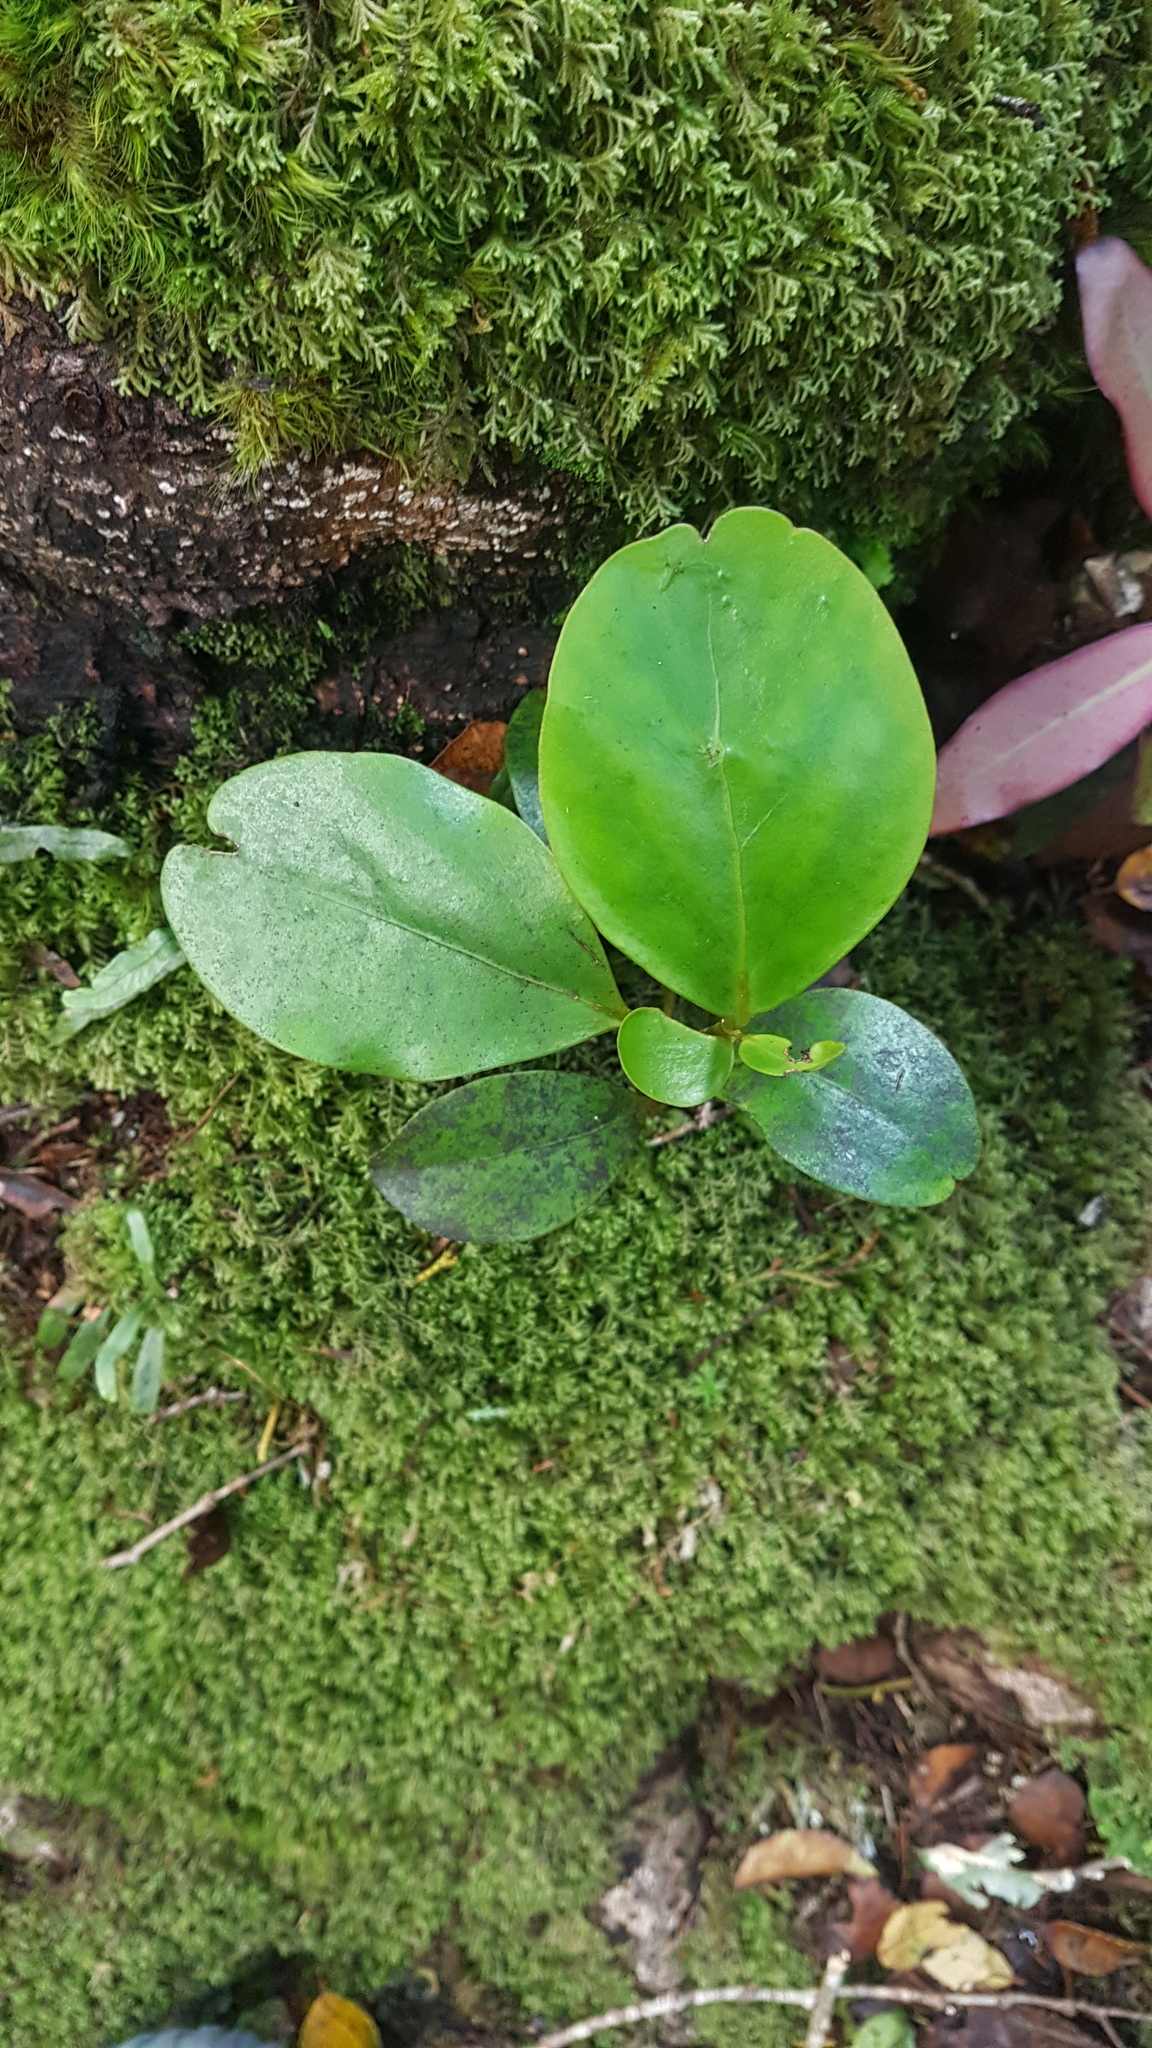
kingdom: Plantae
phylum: Tracheophyta
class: Magnoliopsida
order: Apiales
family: Griseliniaceae
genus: Griselinia
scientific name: Griselinia littoralis
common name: New zealand broadleaf
